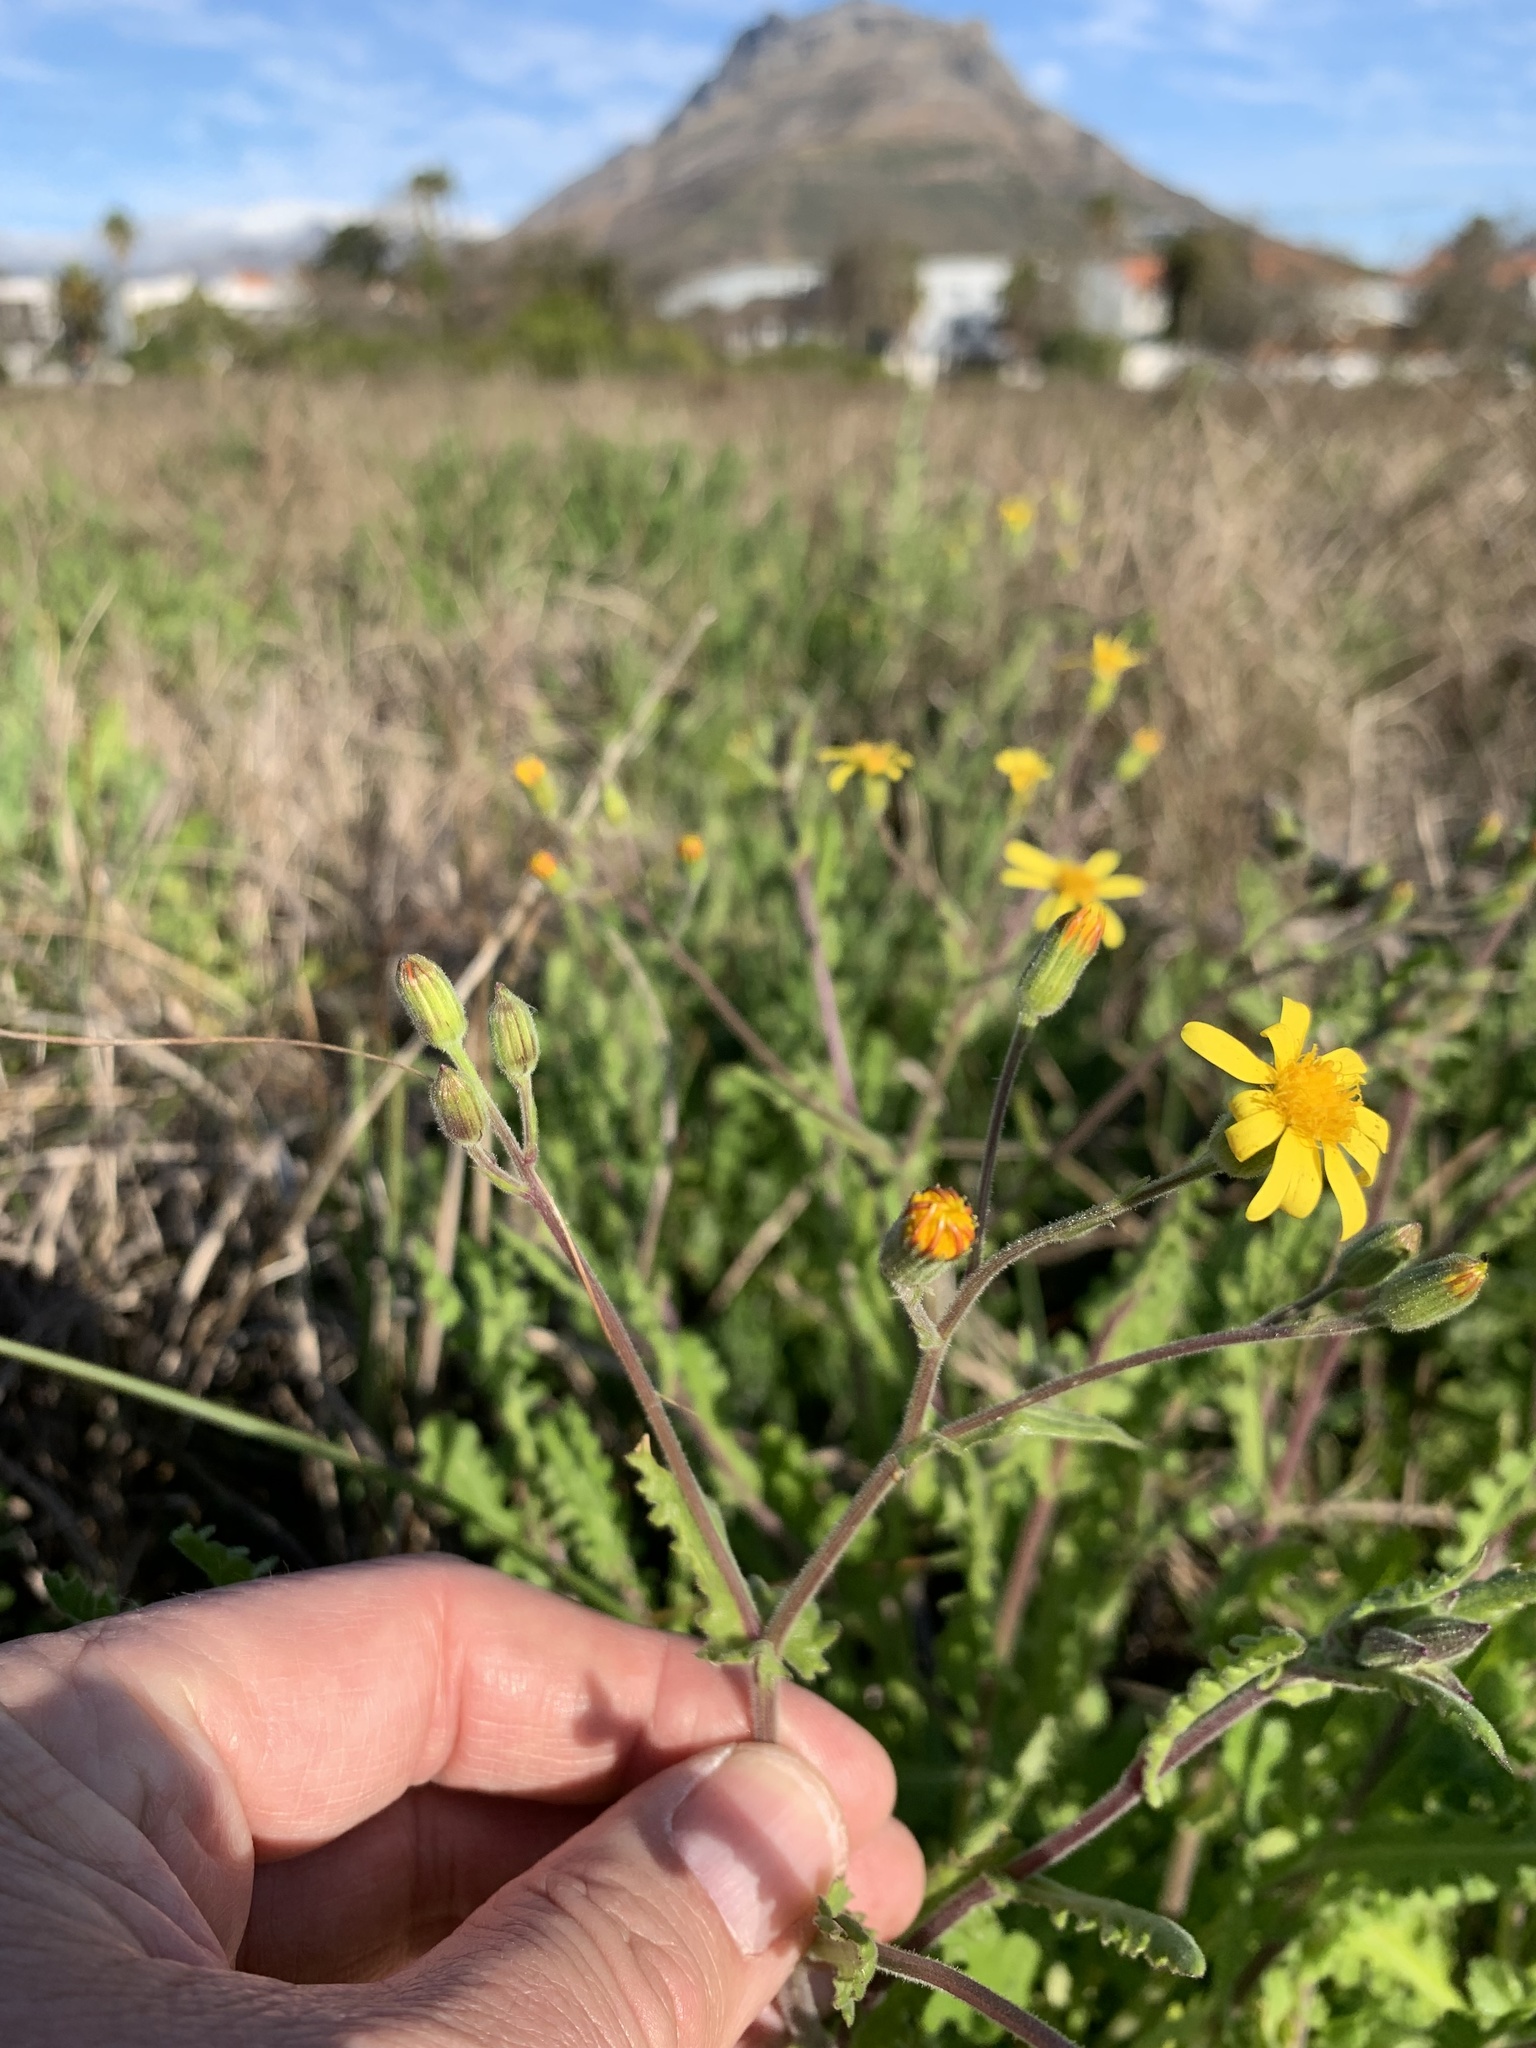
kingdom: Plantae
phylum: Tracheophyta
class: Magnoliopsida
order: Asterales
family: Asteraceae
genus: Senecio
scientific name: Senecio hastatus
